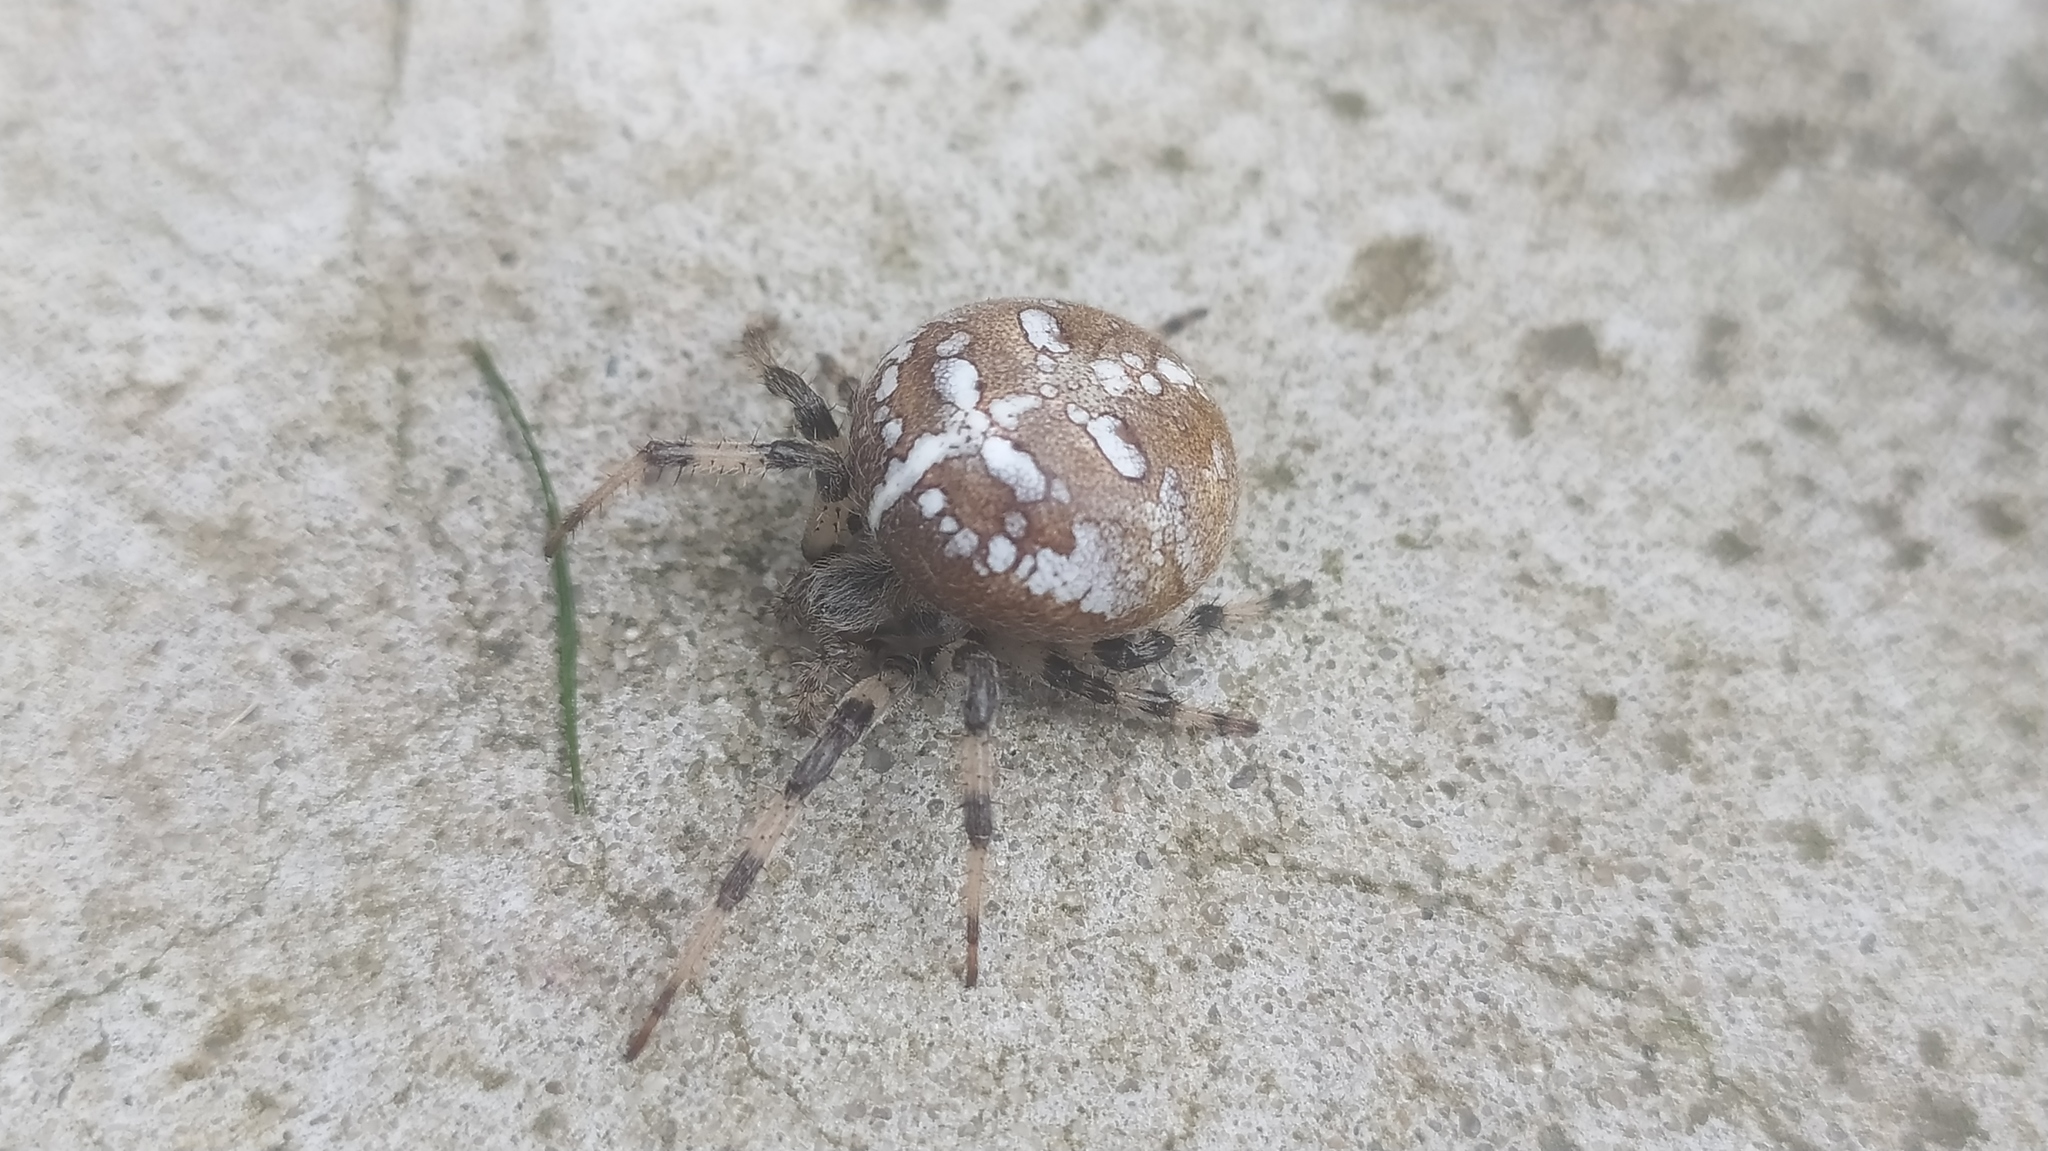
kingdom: Animalia
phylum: Arthropoda
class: Arachnida
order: Araneae
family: Araneidae
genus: Araneus
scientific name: Araneus quadratus
